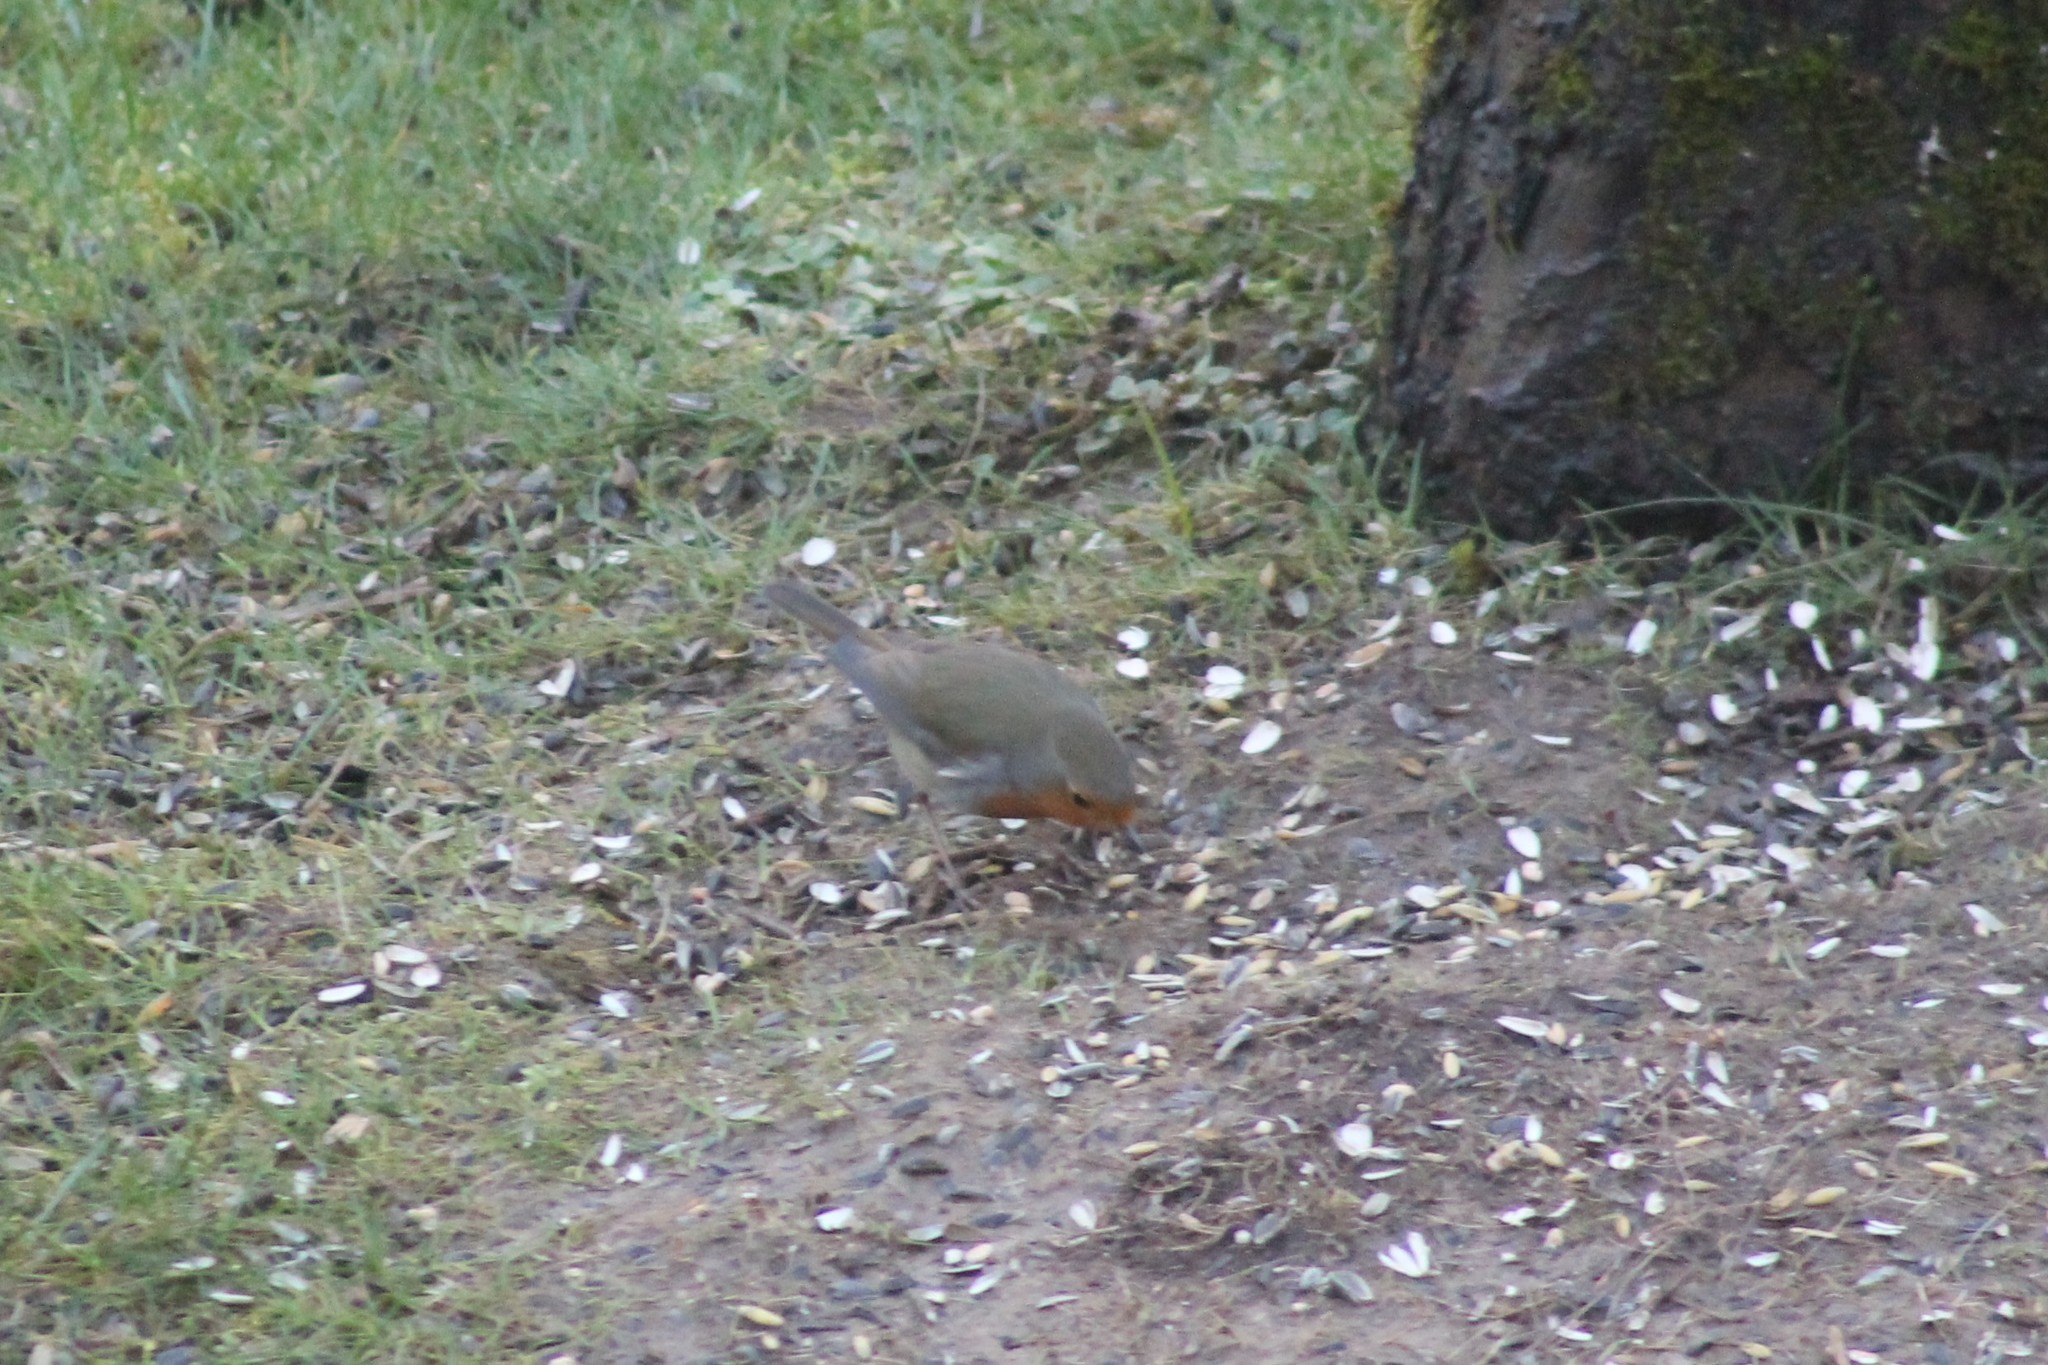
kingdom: Animalia
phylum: Chordata
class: Aves
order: Passeriformes
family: Muscicapidae
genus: Erithacus
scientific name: Erithacus rubecula
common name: European robin
